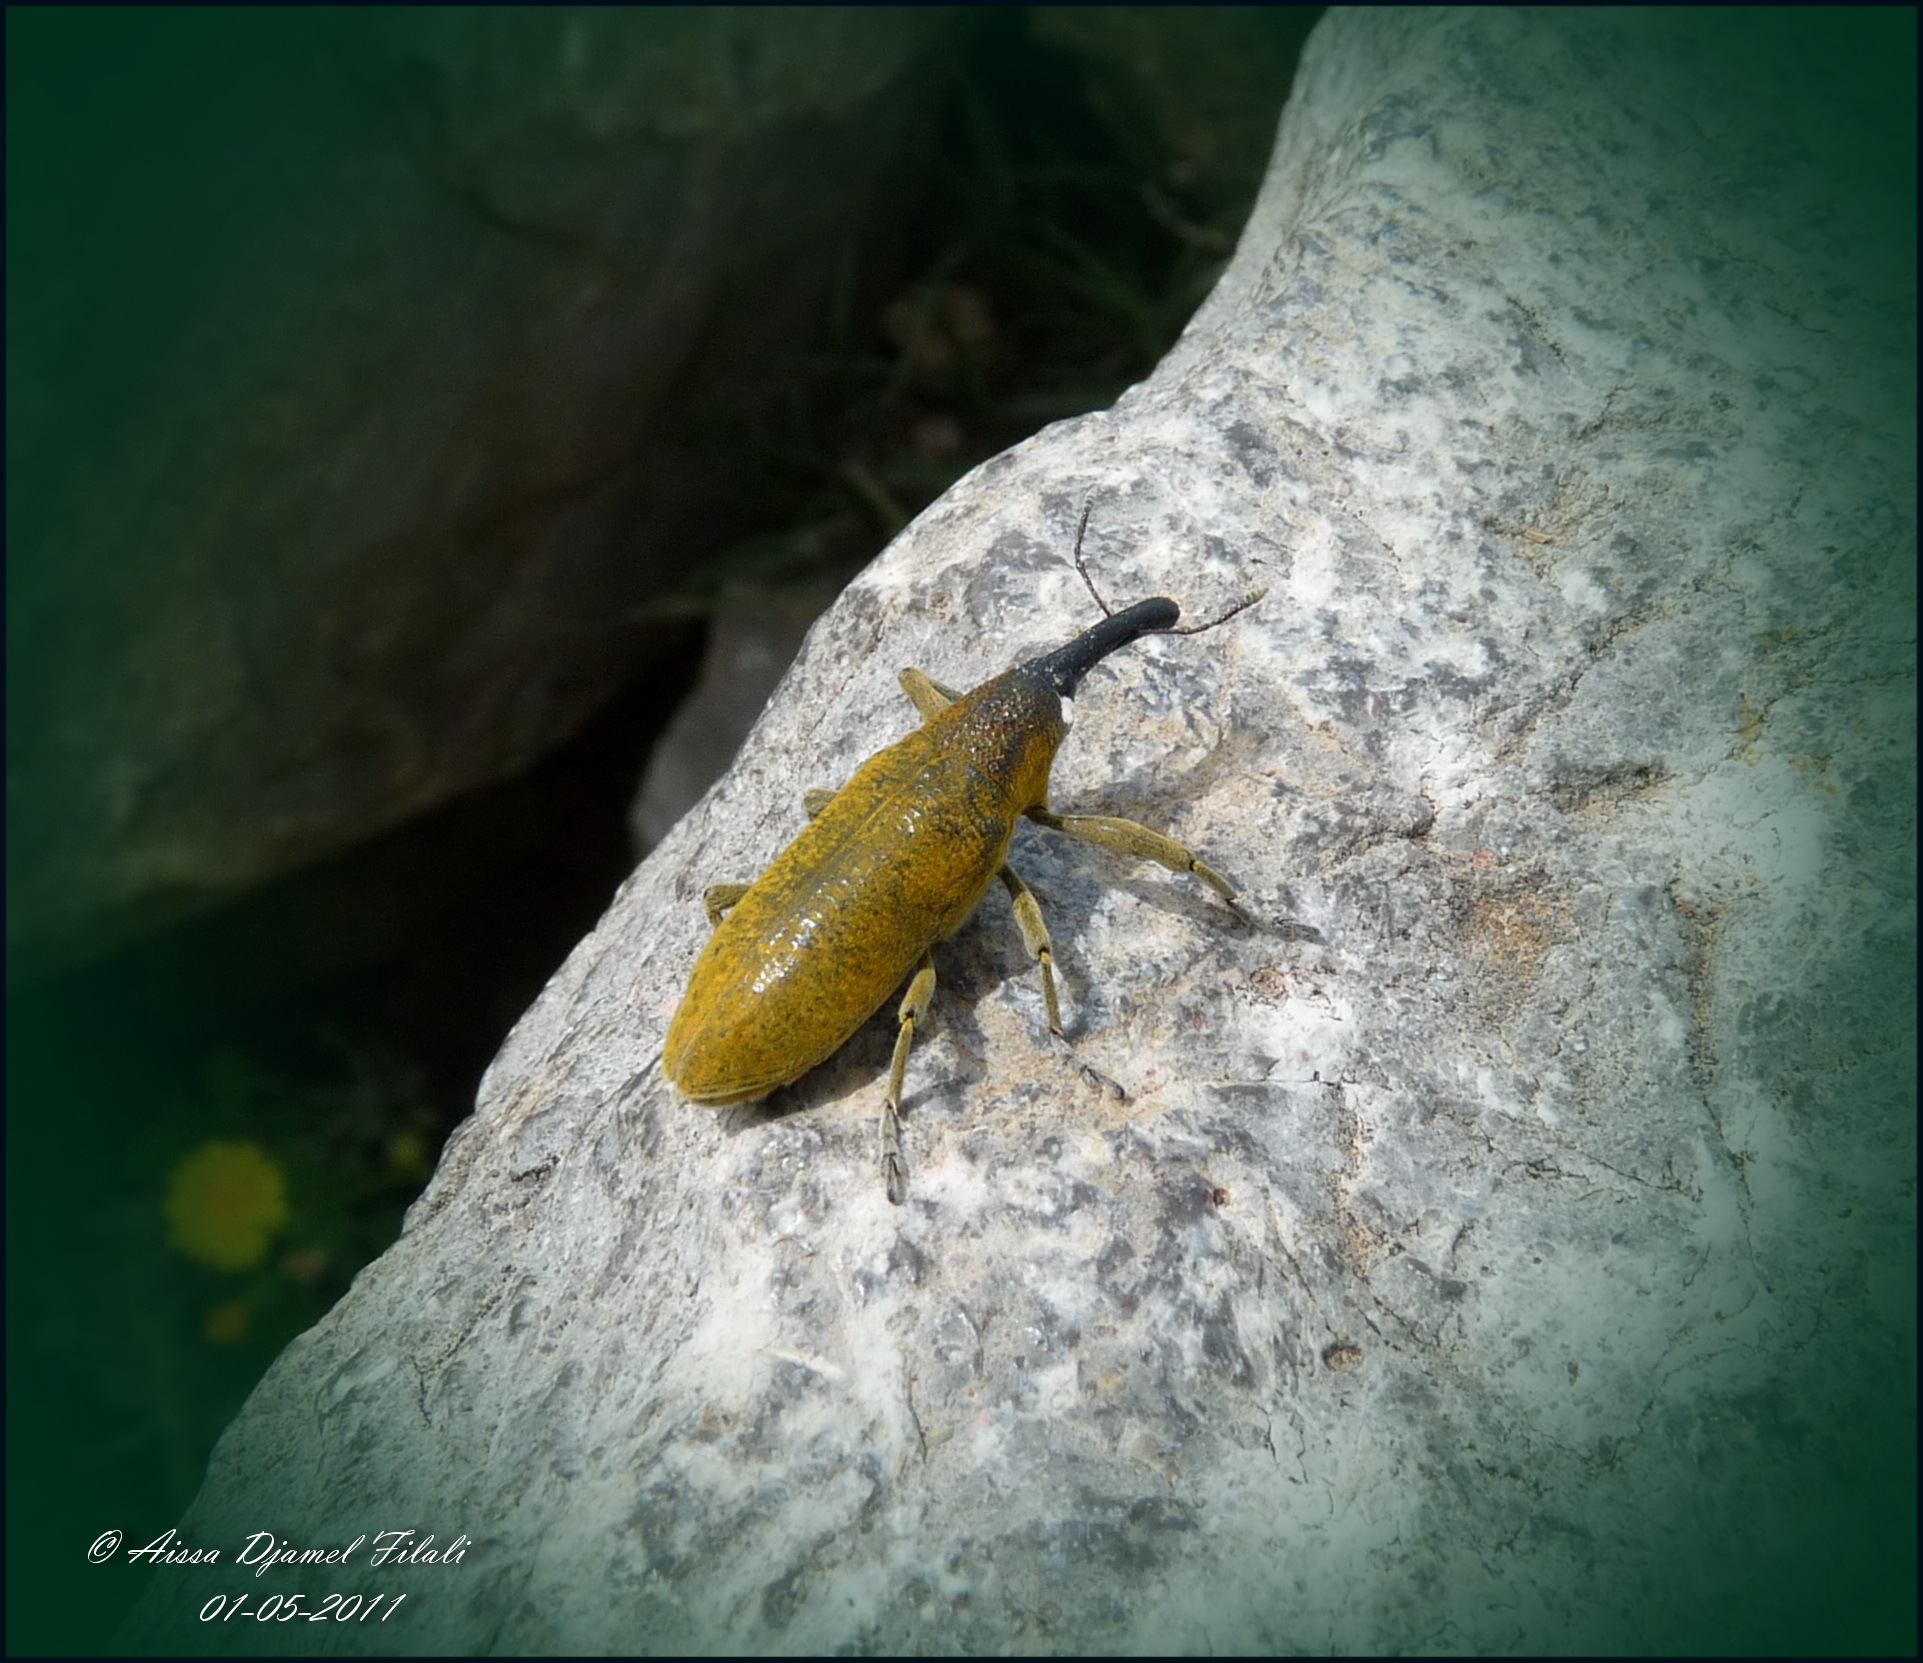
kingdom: Animalia
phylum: Arthropoda
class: Insecta
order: Coleoptera
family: Curculionidae
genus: Lixus
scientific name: Lixus pulverulentus
